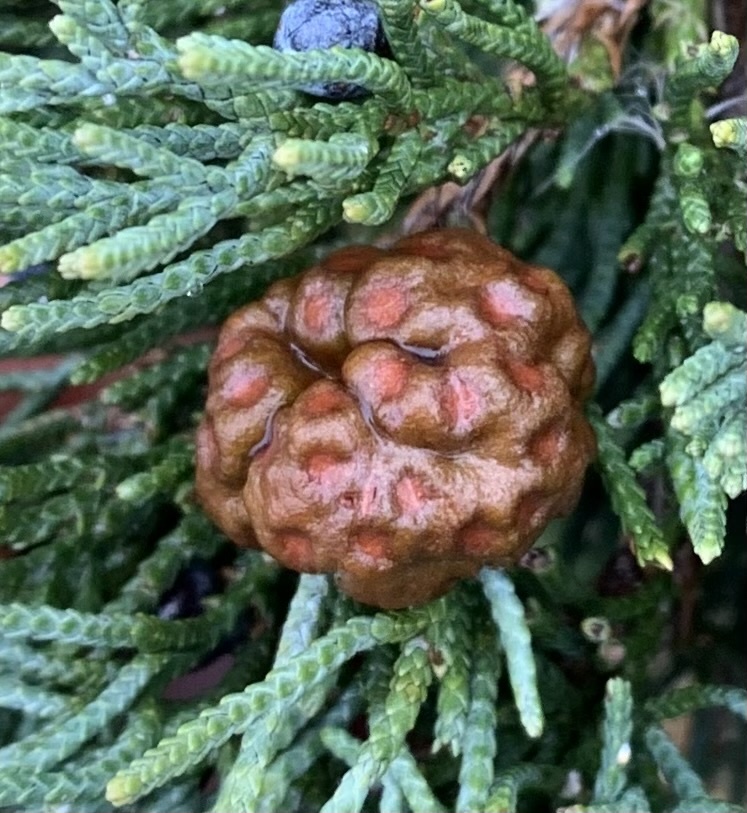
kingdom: Fungi
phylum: Basidiomycota
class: Pucciniomycetes
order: Pucciniales
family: Gymnosporangiaceae
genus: Gymnosporangium
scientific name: Gymnosporangium juniperi-virginianae
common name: Juniper-apple rust
